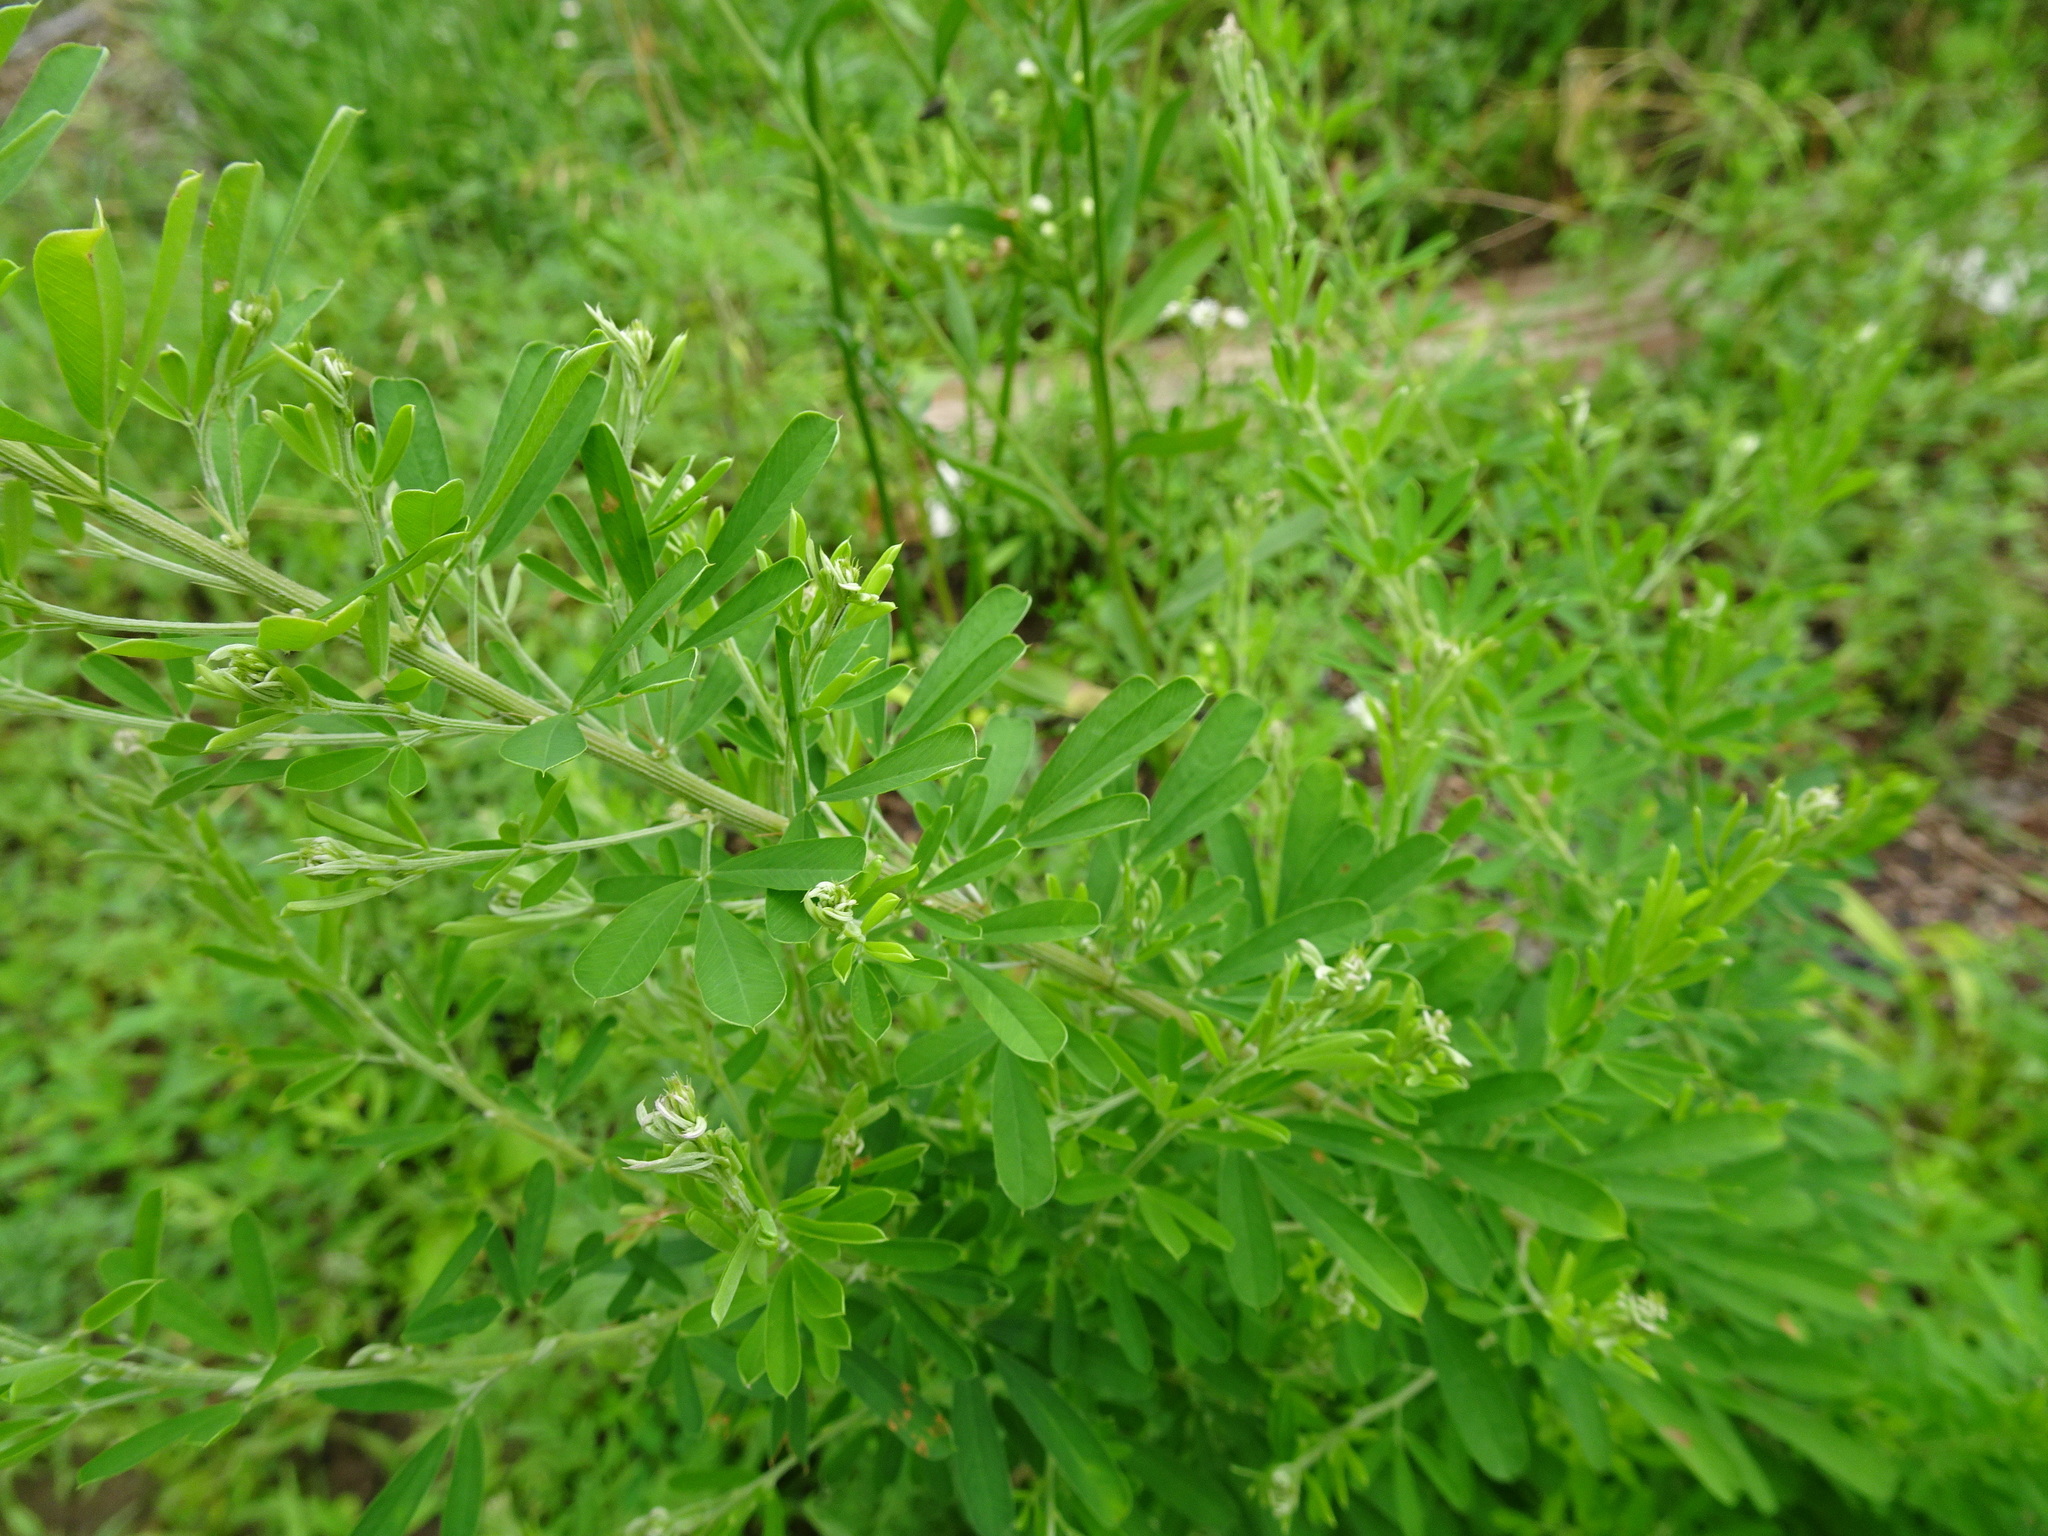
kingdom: Plantae
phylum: Tracheophyta
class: Magnoliopsida
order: Fabales
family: Fabaceae
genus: Lespedeza
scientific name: Lespedeza cuneata
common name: Chinese bush-clover
